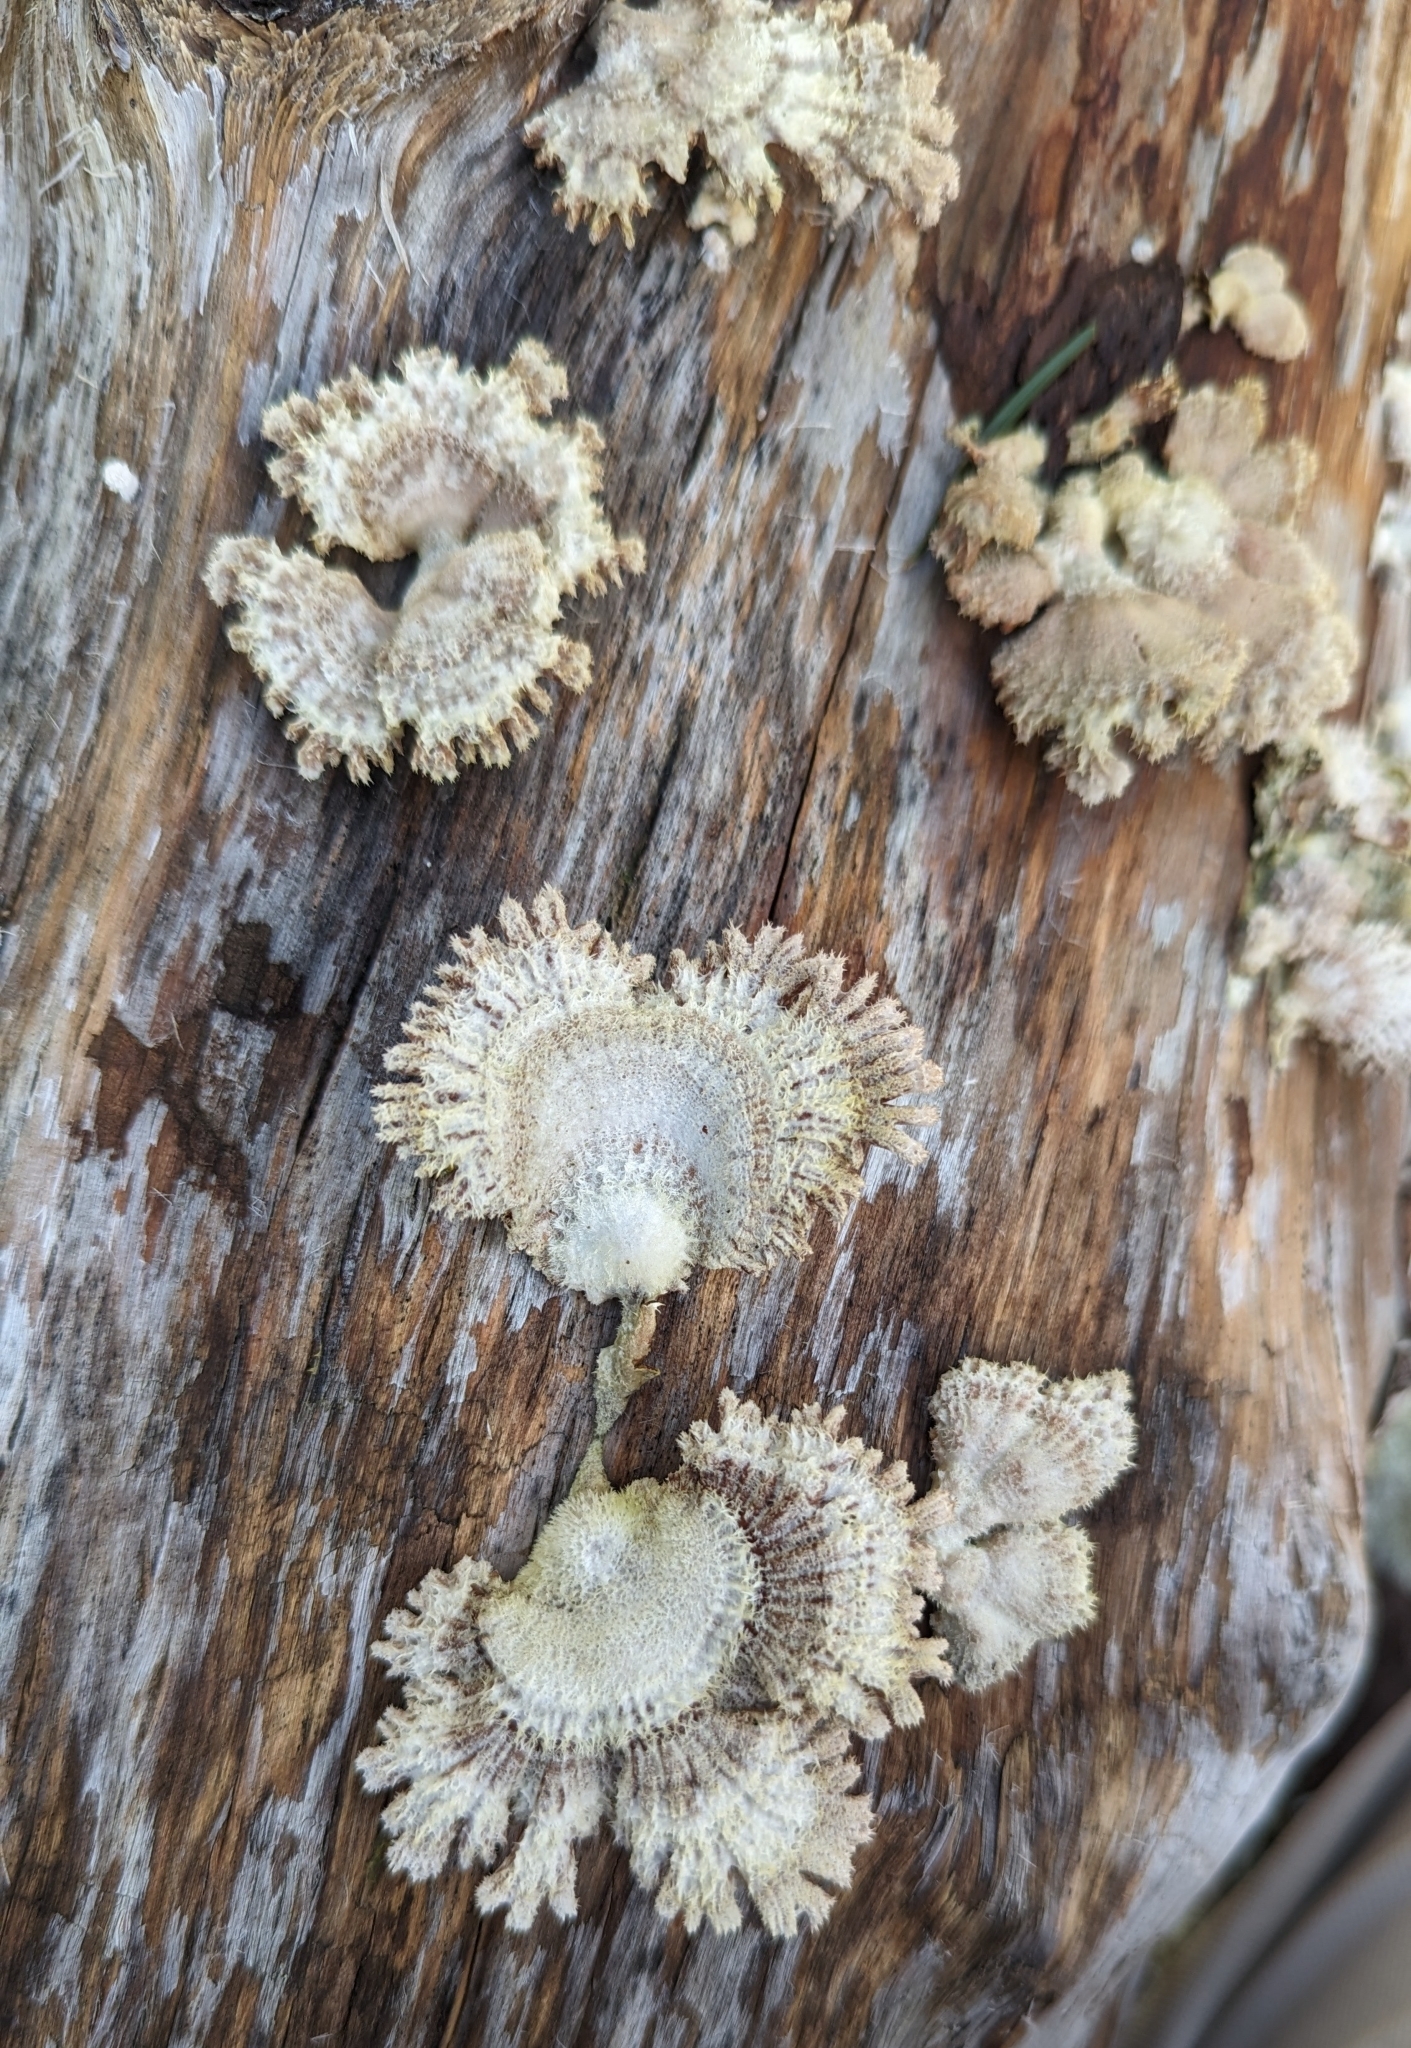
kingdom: Fungi
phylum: Basidiomycota
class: Agaricomycetes
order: Agaricales
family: Schizophyllaceae
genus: Schizophyllum
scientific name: Schizophyllum commune
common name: Common porecrust
